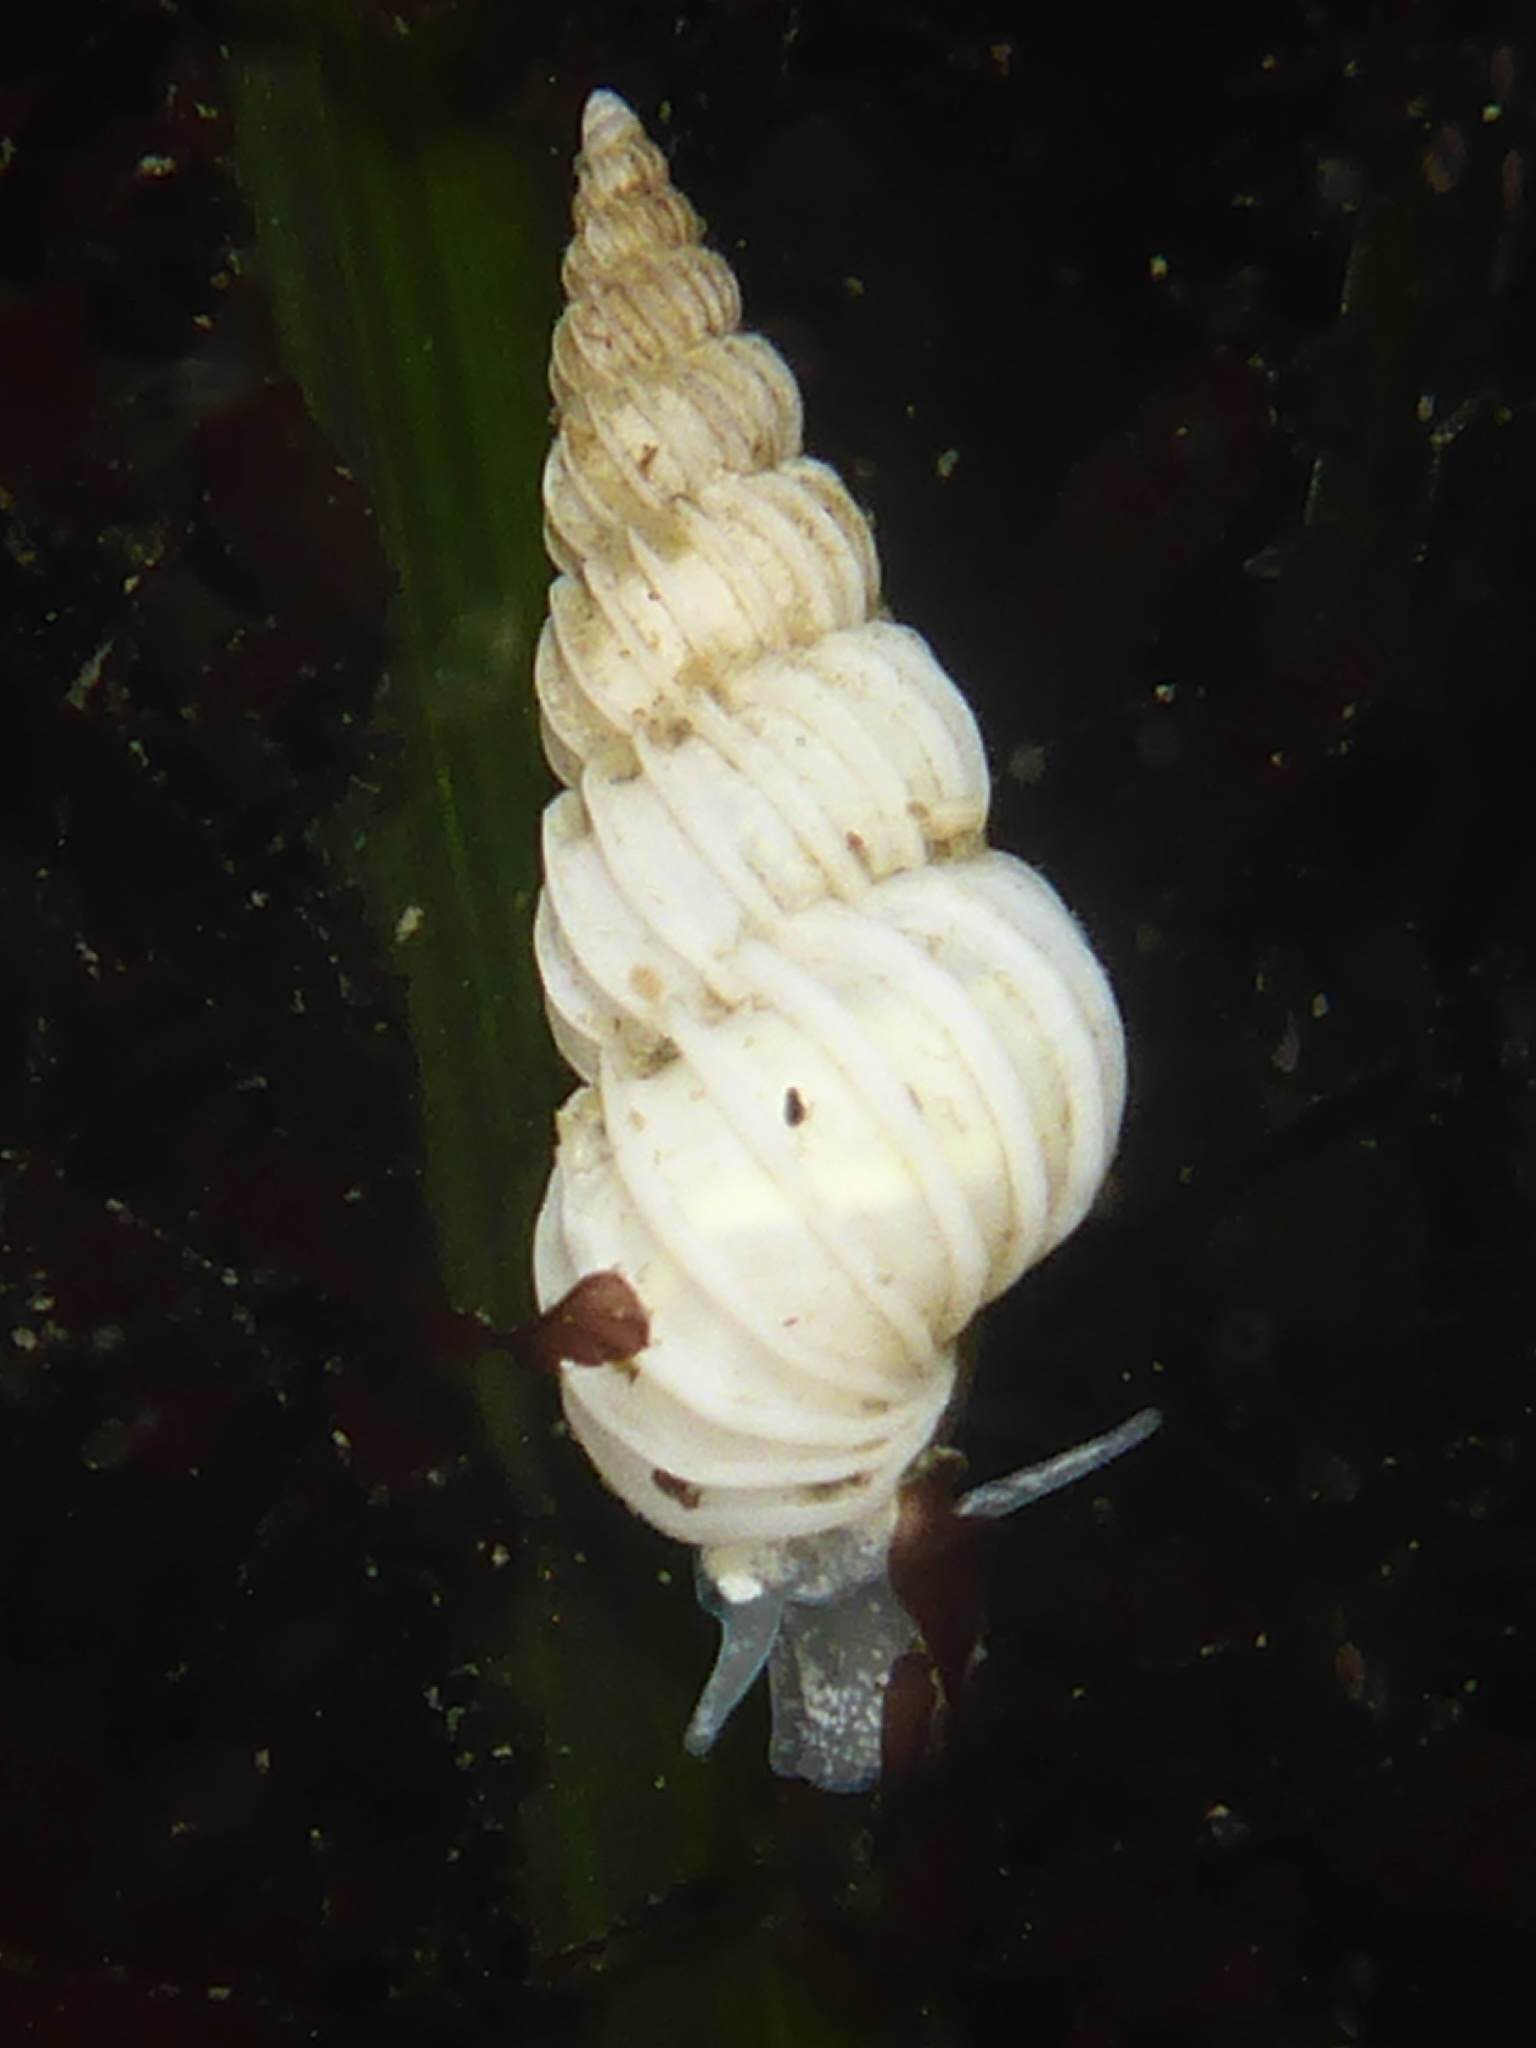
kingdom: Animalia
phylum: Mollusca
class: Gastropoda
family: Epitoniidae
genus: Epitonium
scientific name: Epitonium indianorum
